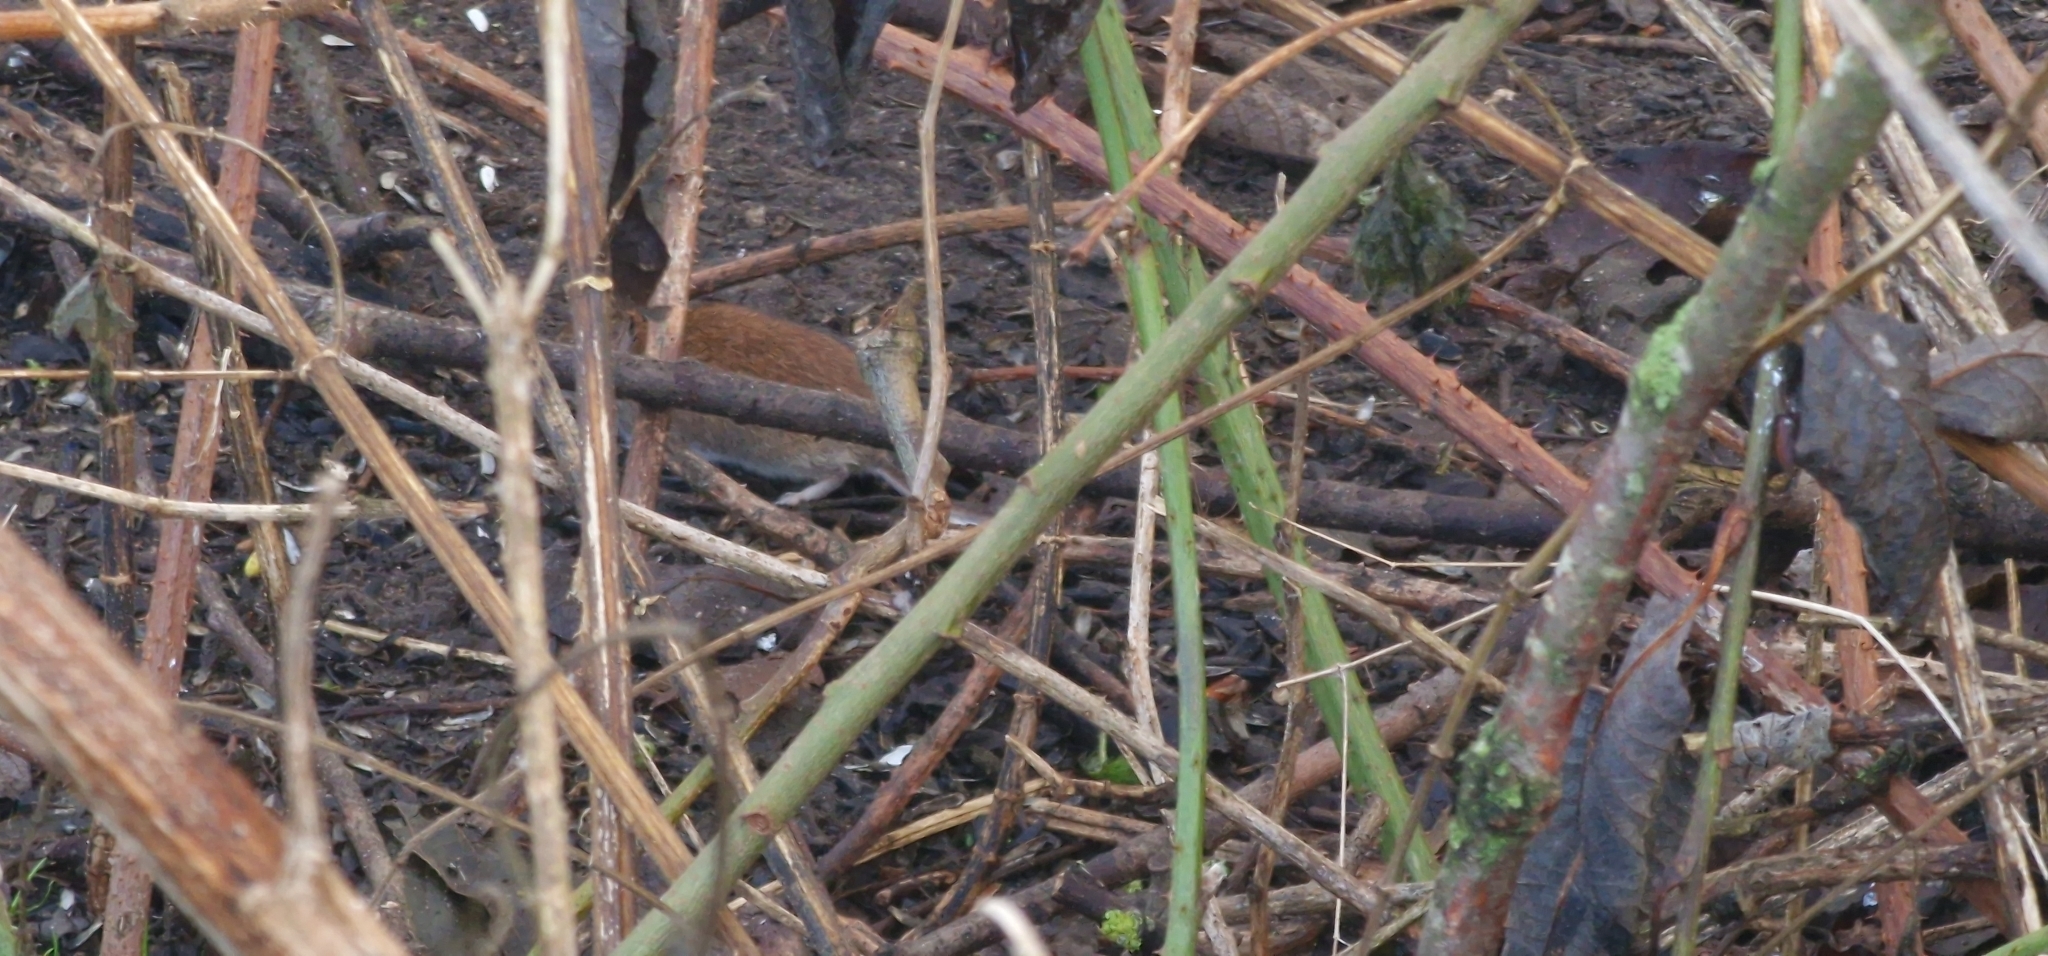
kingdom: Animalia
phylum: Chordata
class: Mammalia
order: Rodentia
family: Cricetidae
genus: Myodes
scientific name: Myodes glareolus
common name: Bank vole
